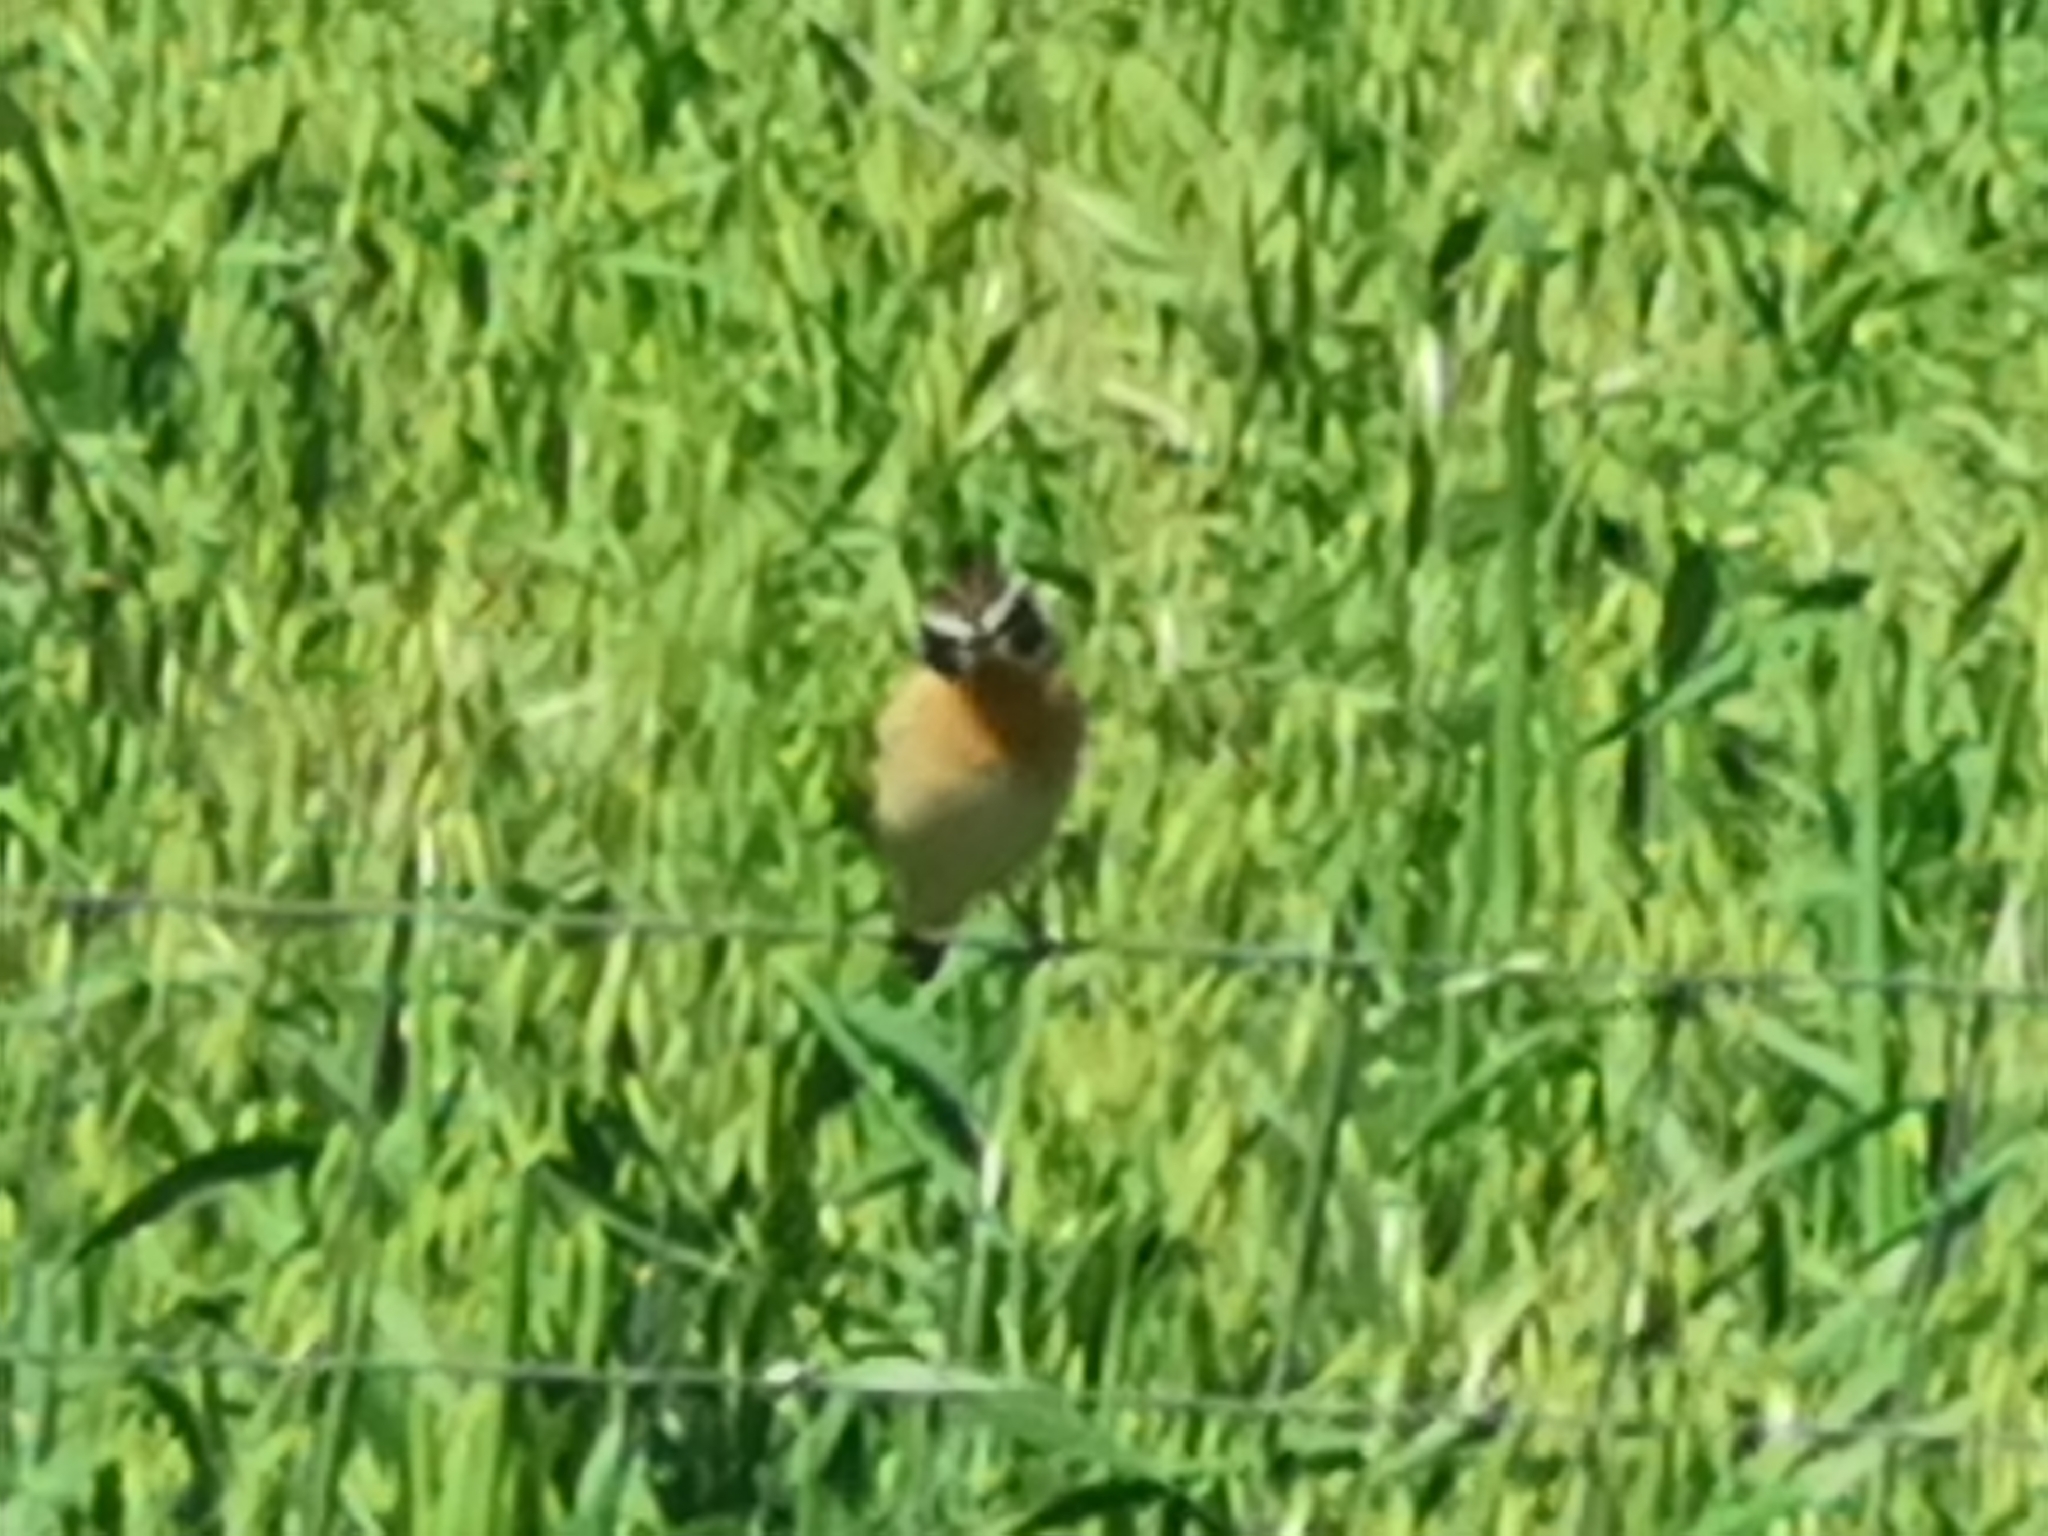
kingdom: Animalia
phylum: Chordata
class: Aves
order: Passeriformes
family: Muscicapidae
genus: Saxicola
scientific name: Saxicola rubetra
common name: Whinchat
